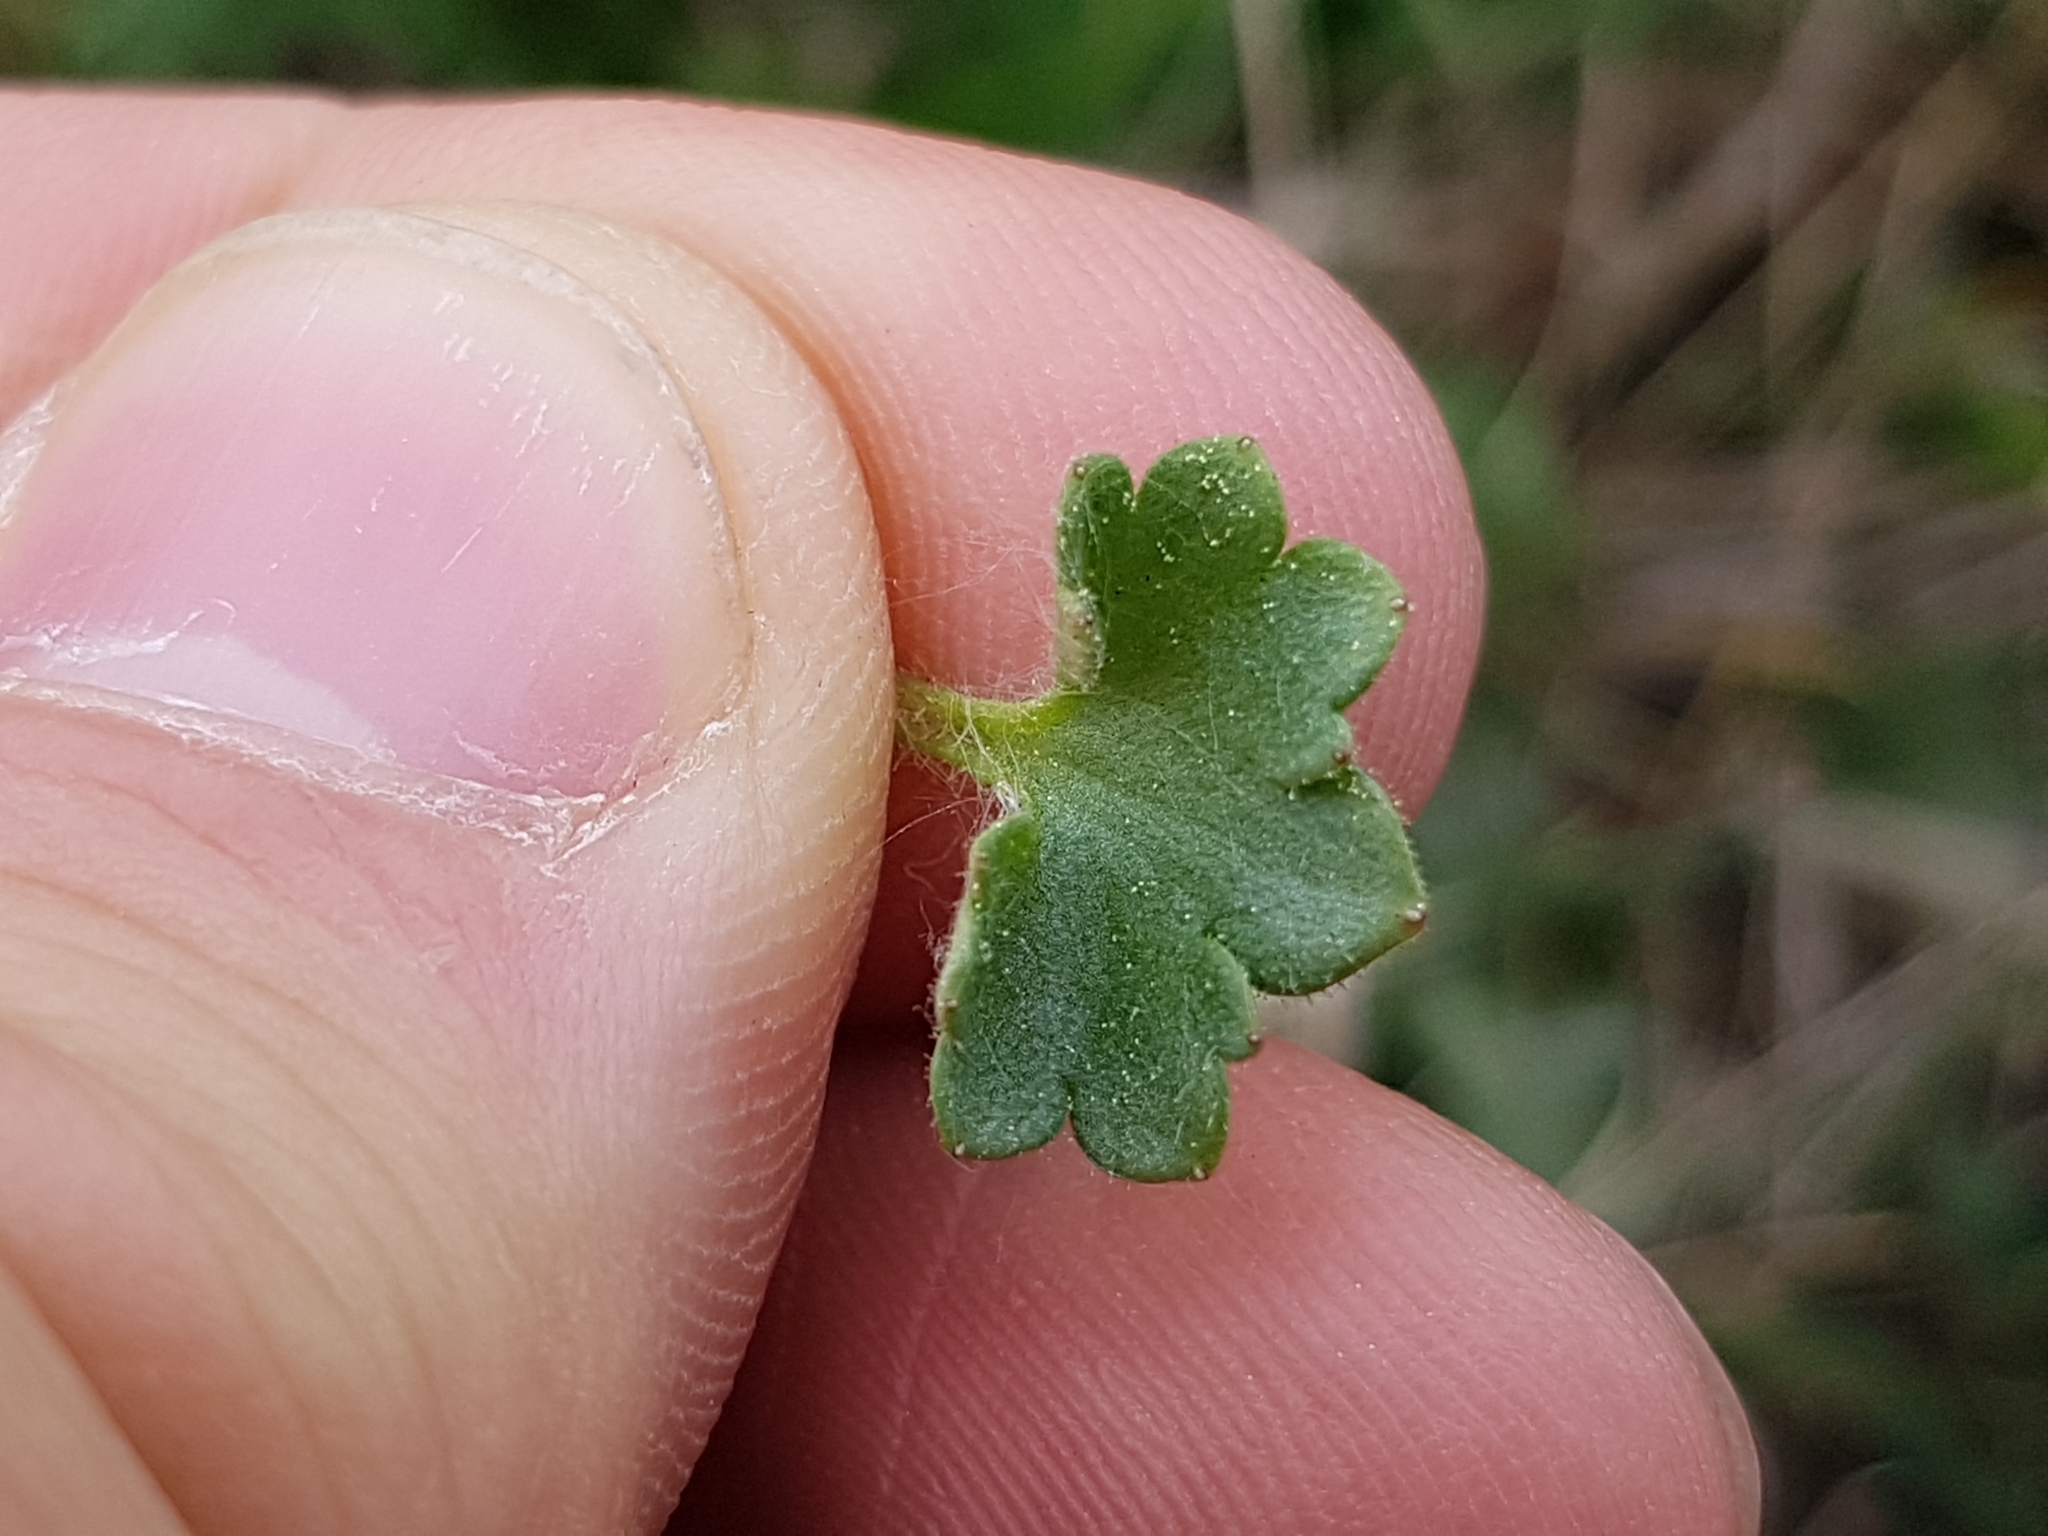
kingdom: Plantae
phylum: Tracheophyta
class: Magnoliopsida
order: Saxifragales
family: Saxifragaceae
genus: Saxifraga
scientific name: Saxifraga granulata
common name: Meadow saxifrage
